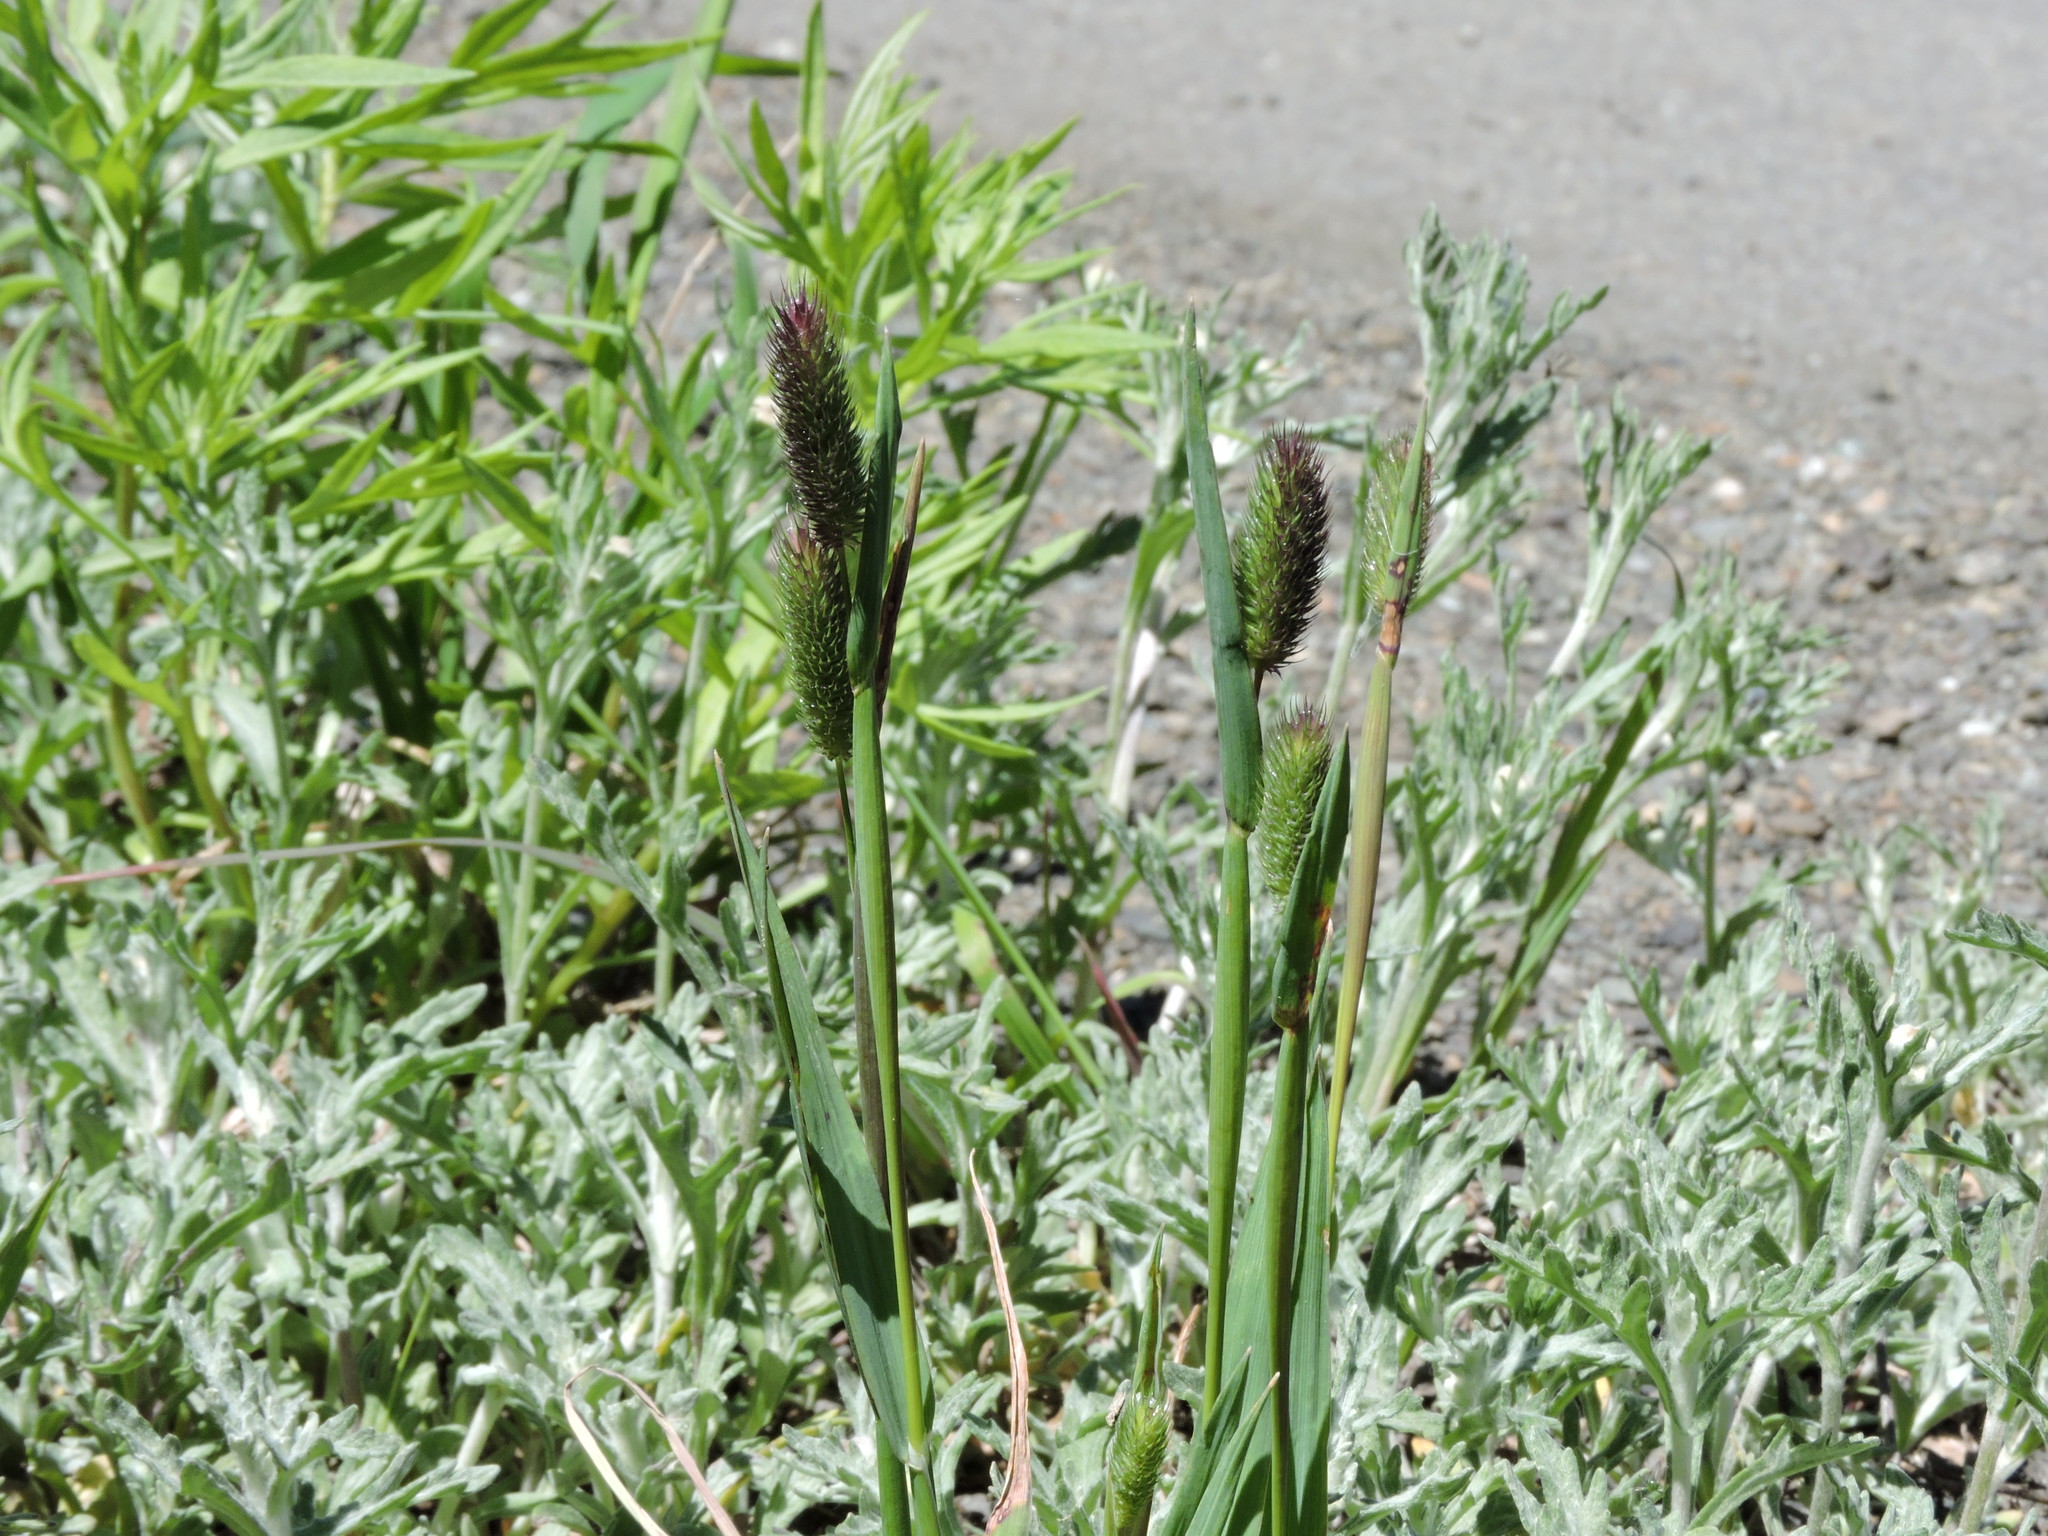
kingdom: Plantae
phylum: Tracheophyta
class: Liliopsida
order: Poales
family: Poaceae
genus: Phleum
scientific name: Phleum alpinum
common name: Alpine cat's-tail
